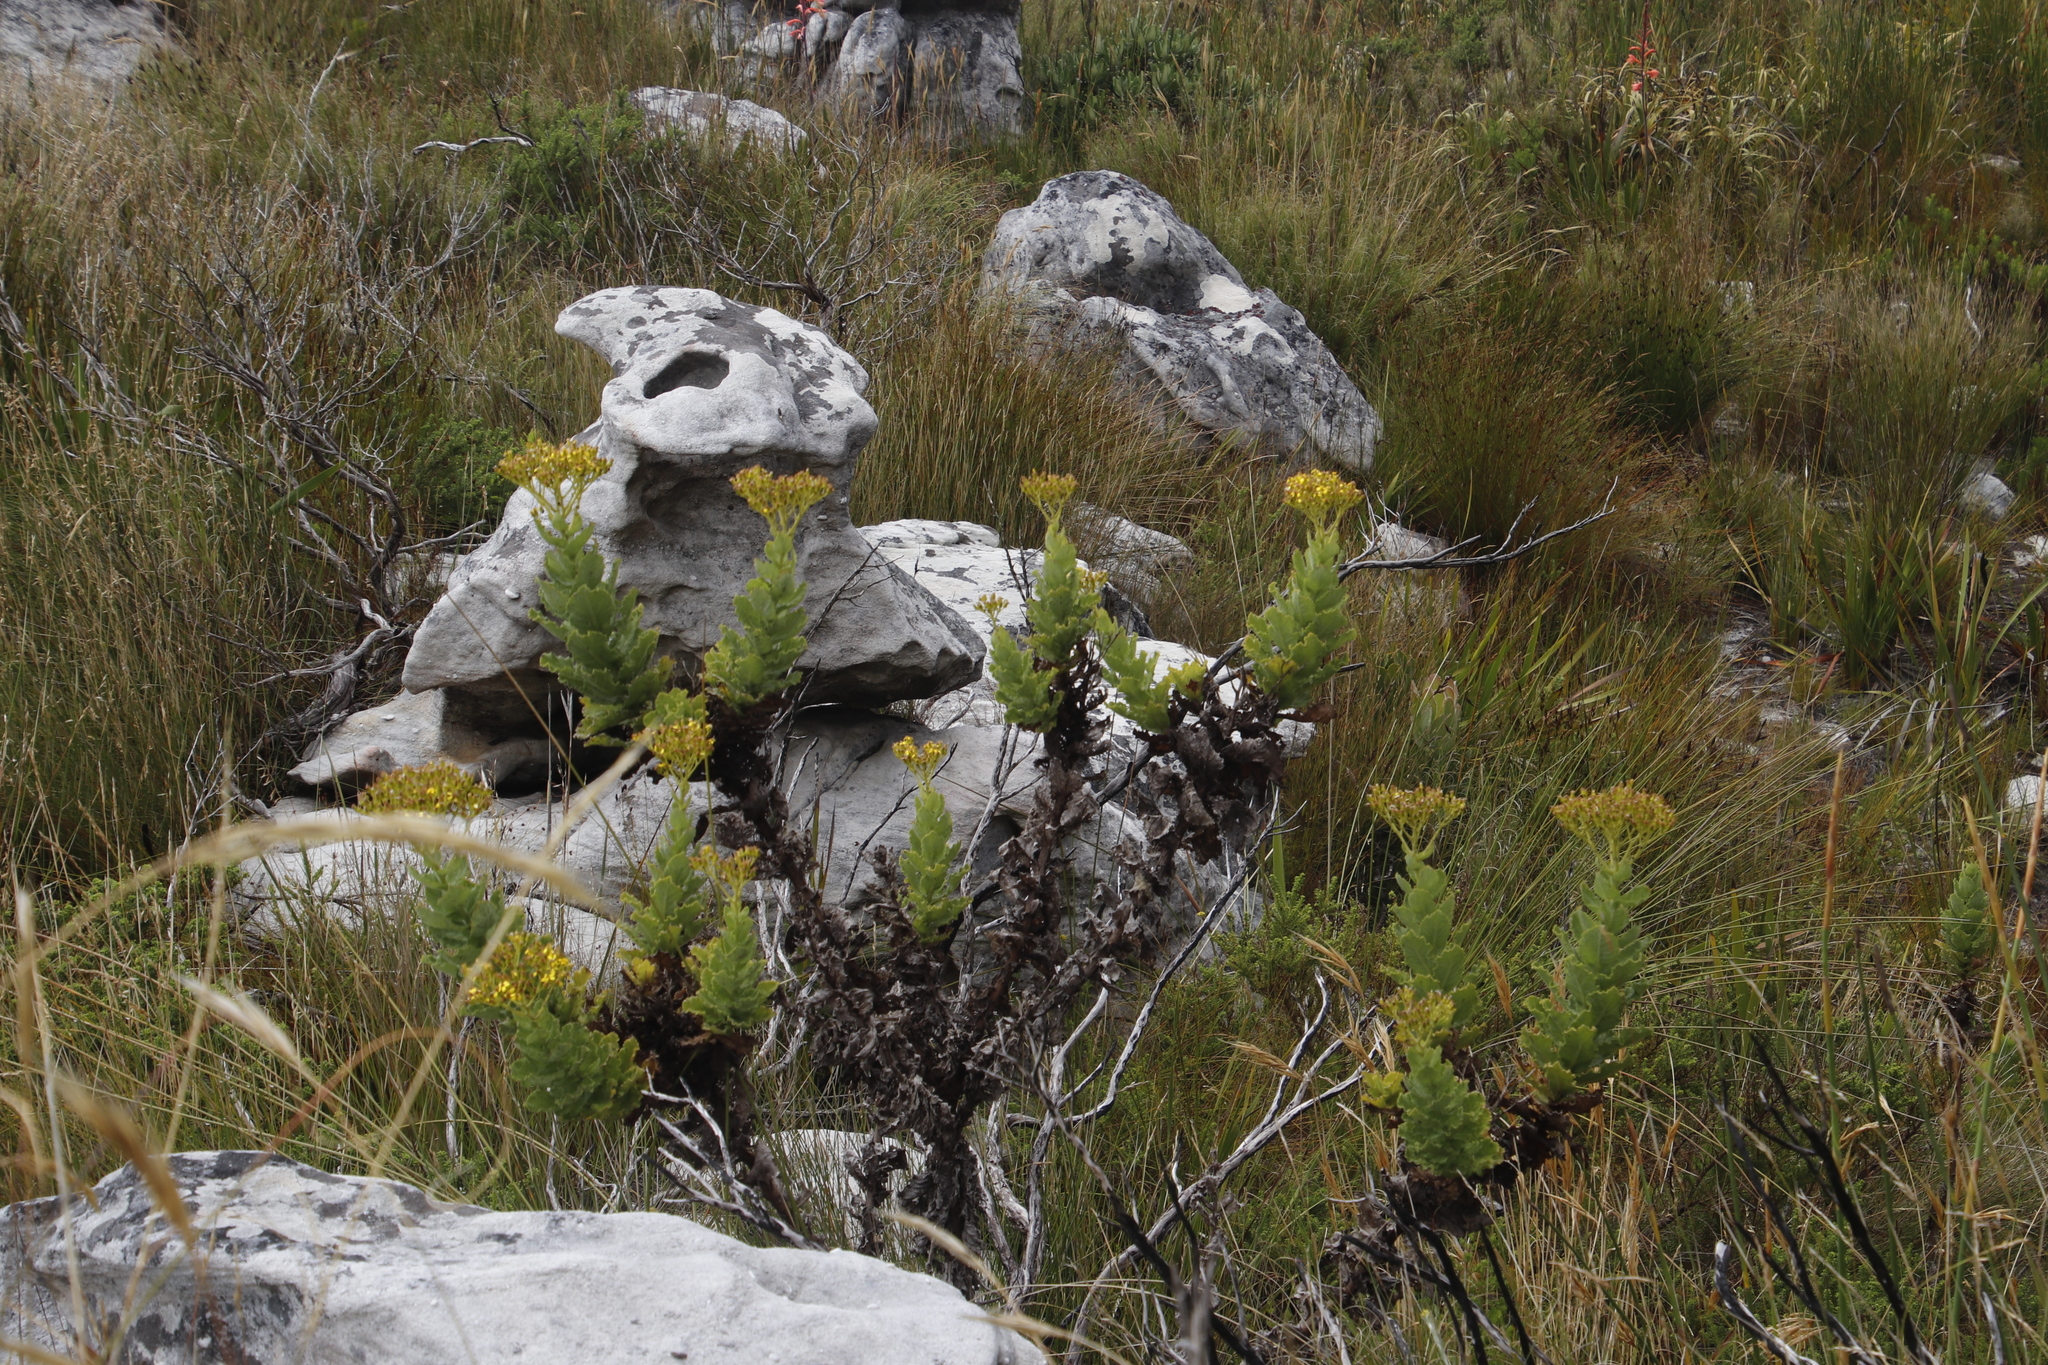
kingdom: Plantae
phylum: Tracheophyta
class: Magnoliopsida
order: Asterales
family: Asteraceae
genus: Senecio
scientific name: Senecio rigidus
